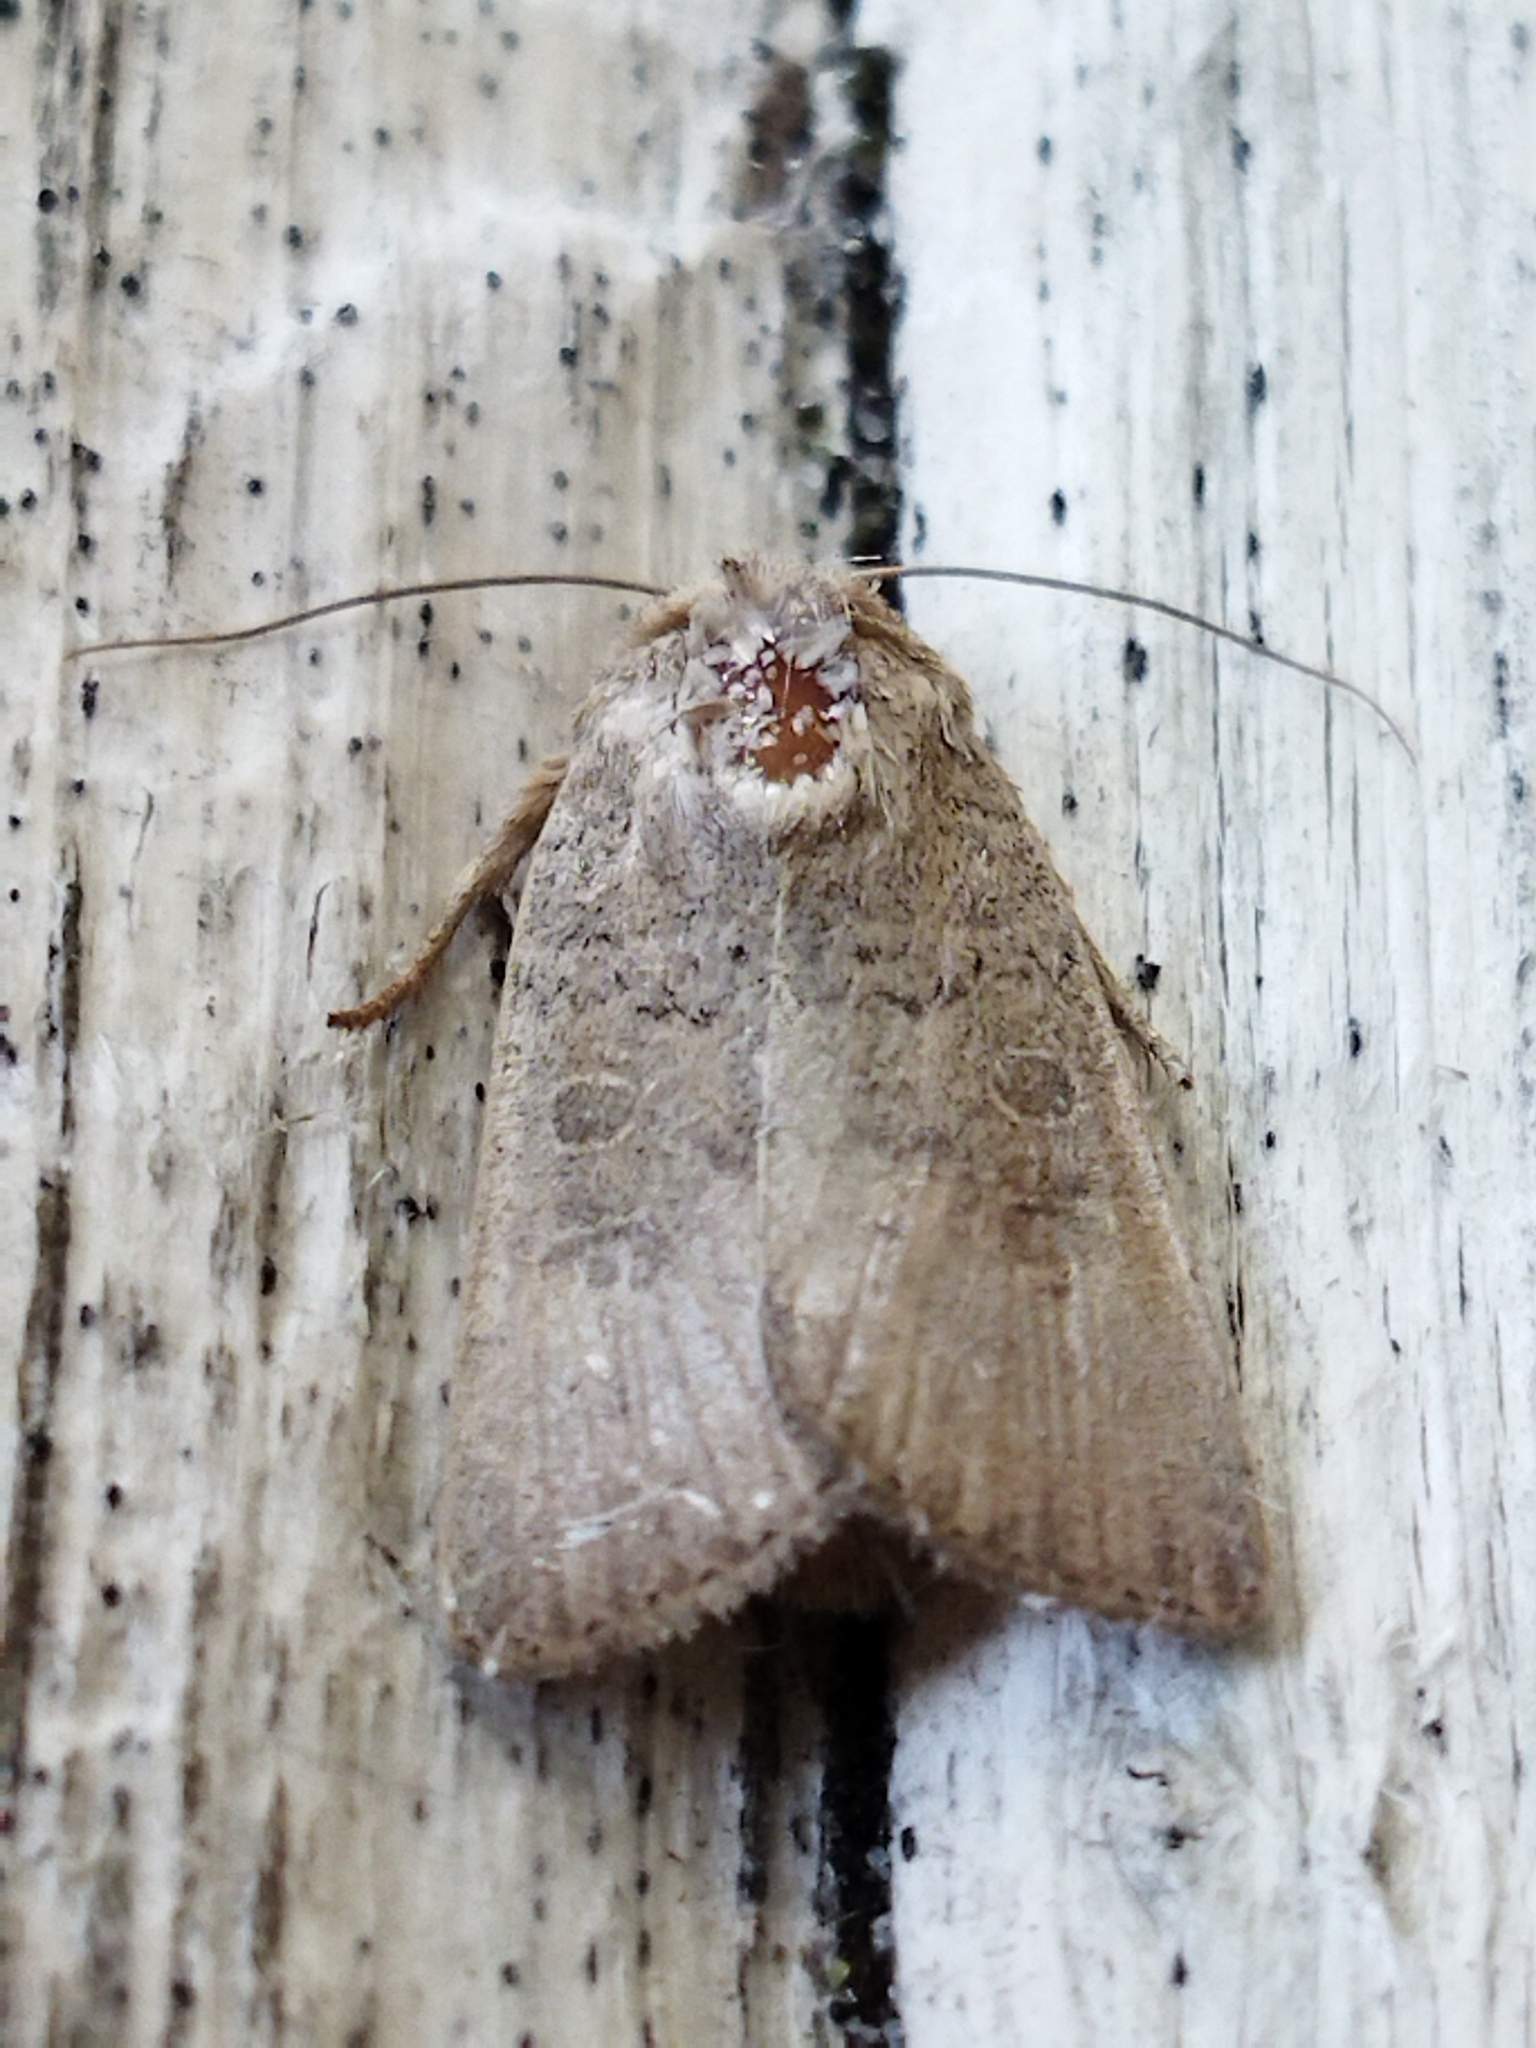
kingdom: Animalia
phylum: Arthropoda
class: Insecta
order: Lepidoptera
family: Noctuidae
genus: Hoplodrina
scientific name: Hoplodrina ambigua
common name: Vine's rustic
